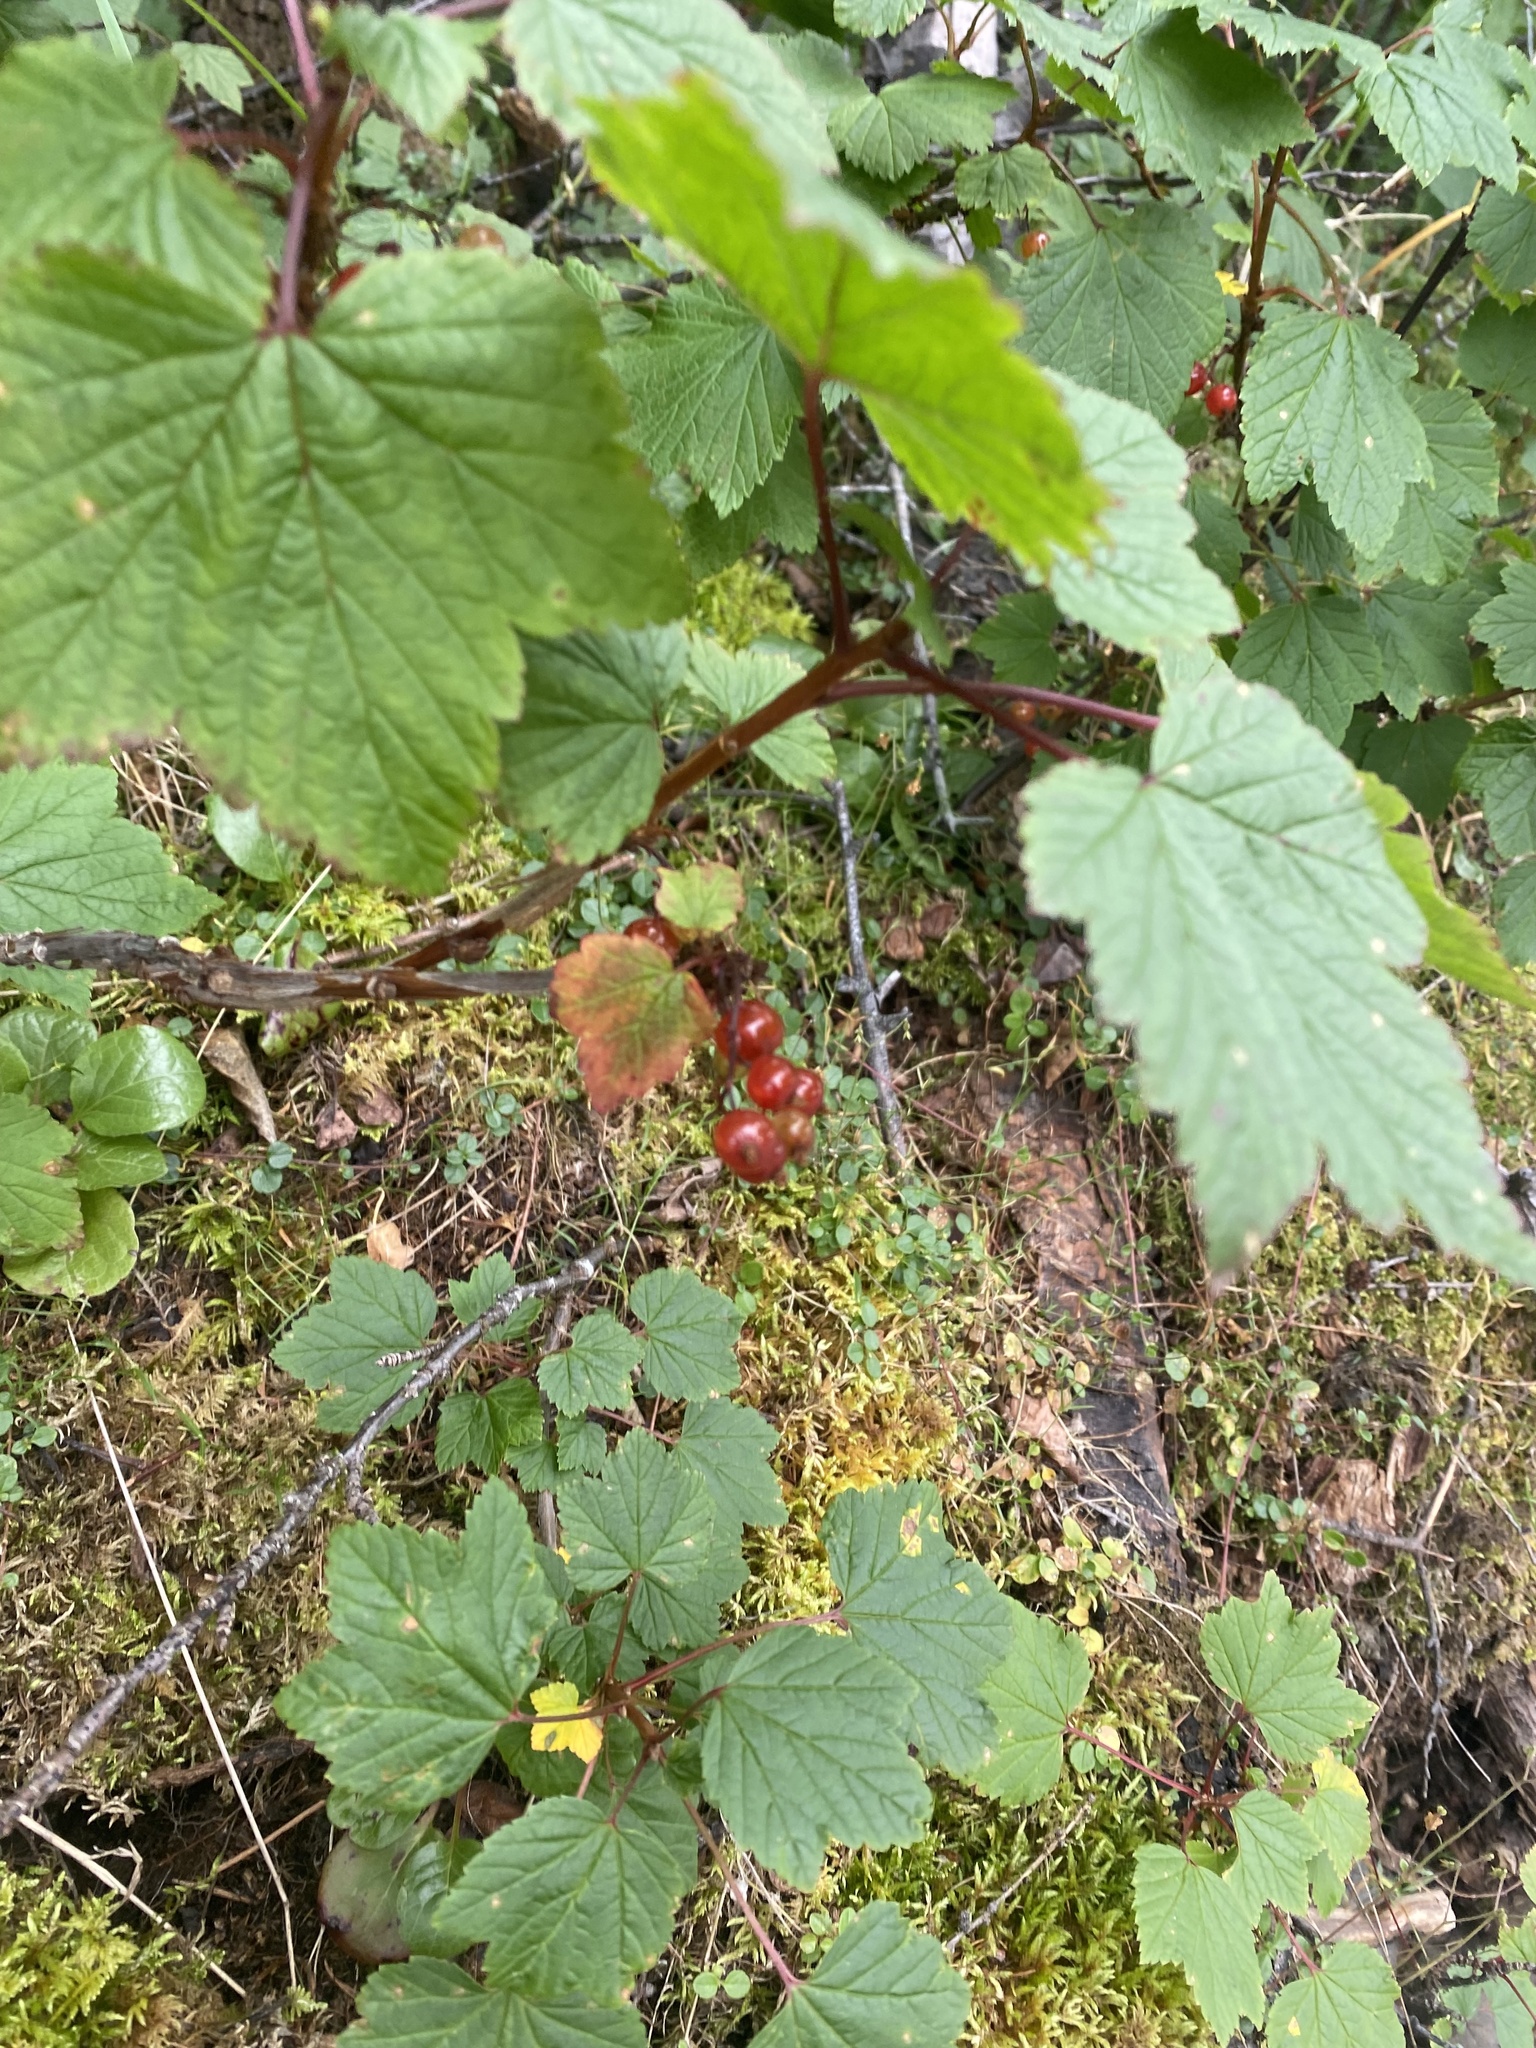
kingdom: Plantae
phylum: Tracheophyta
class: Magnoliopsida
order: Saxifragales
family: Grossulariaceae
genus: Ribes
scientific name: Ribes triste
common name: Swamp red currant
